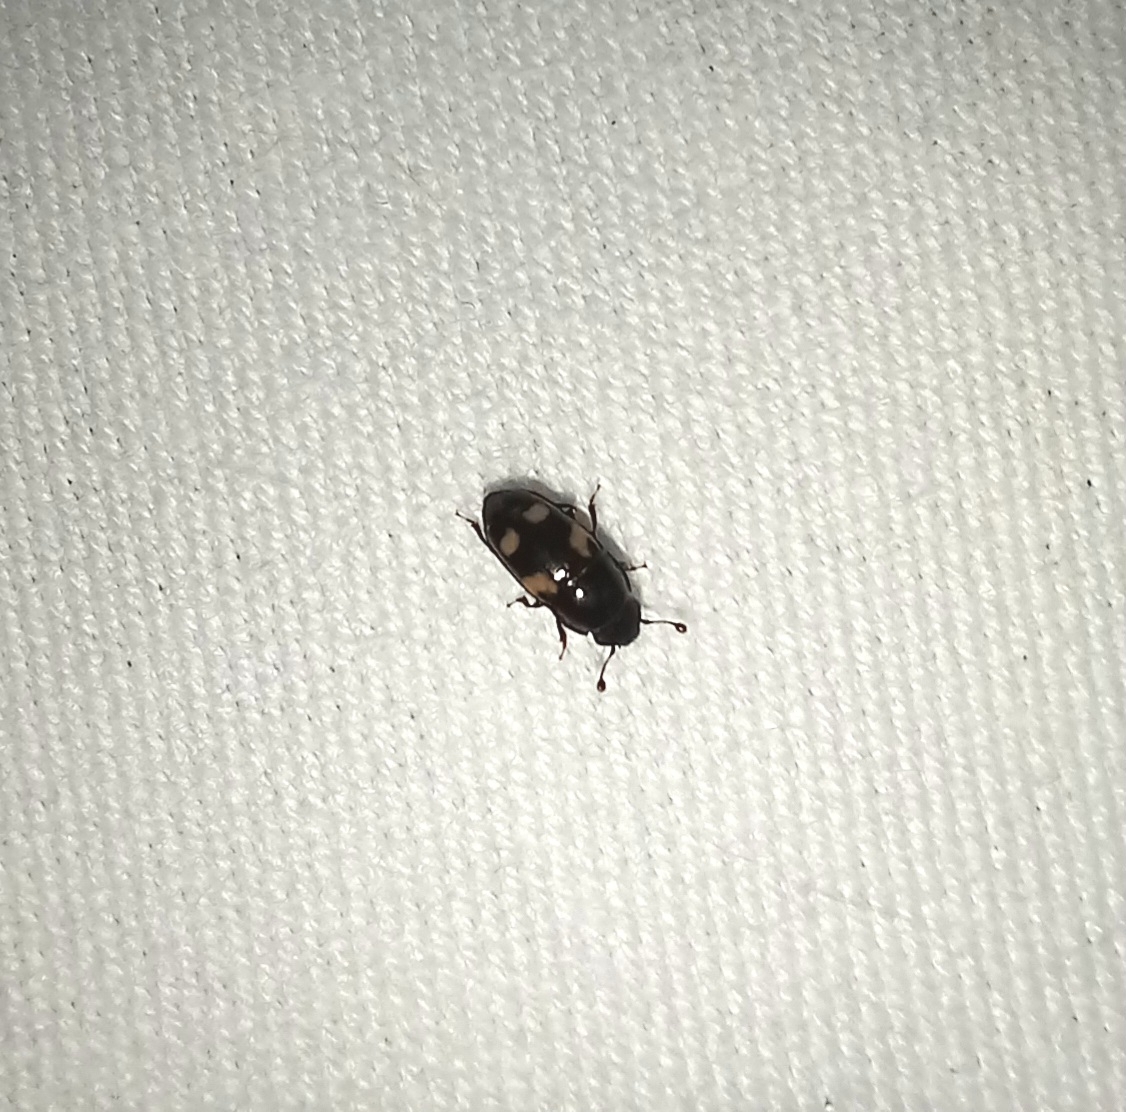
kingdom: Animalia
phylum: Arthropoda
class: Insecta
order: Coleoptera
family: Nitidulidae
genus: Glischrochilus
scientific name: Glischrochilus quadrisignatus
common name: Picnic beetle
